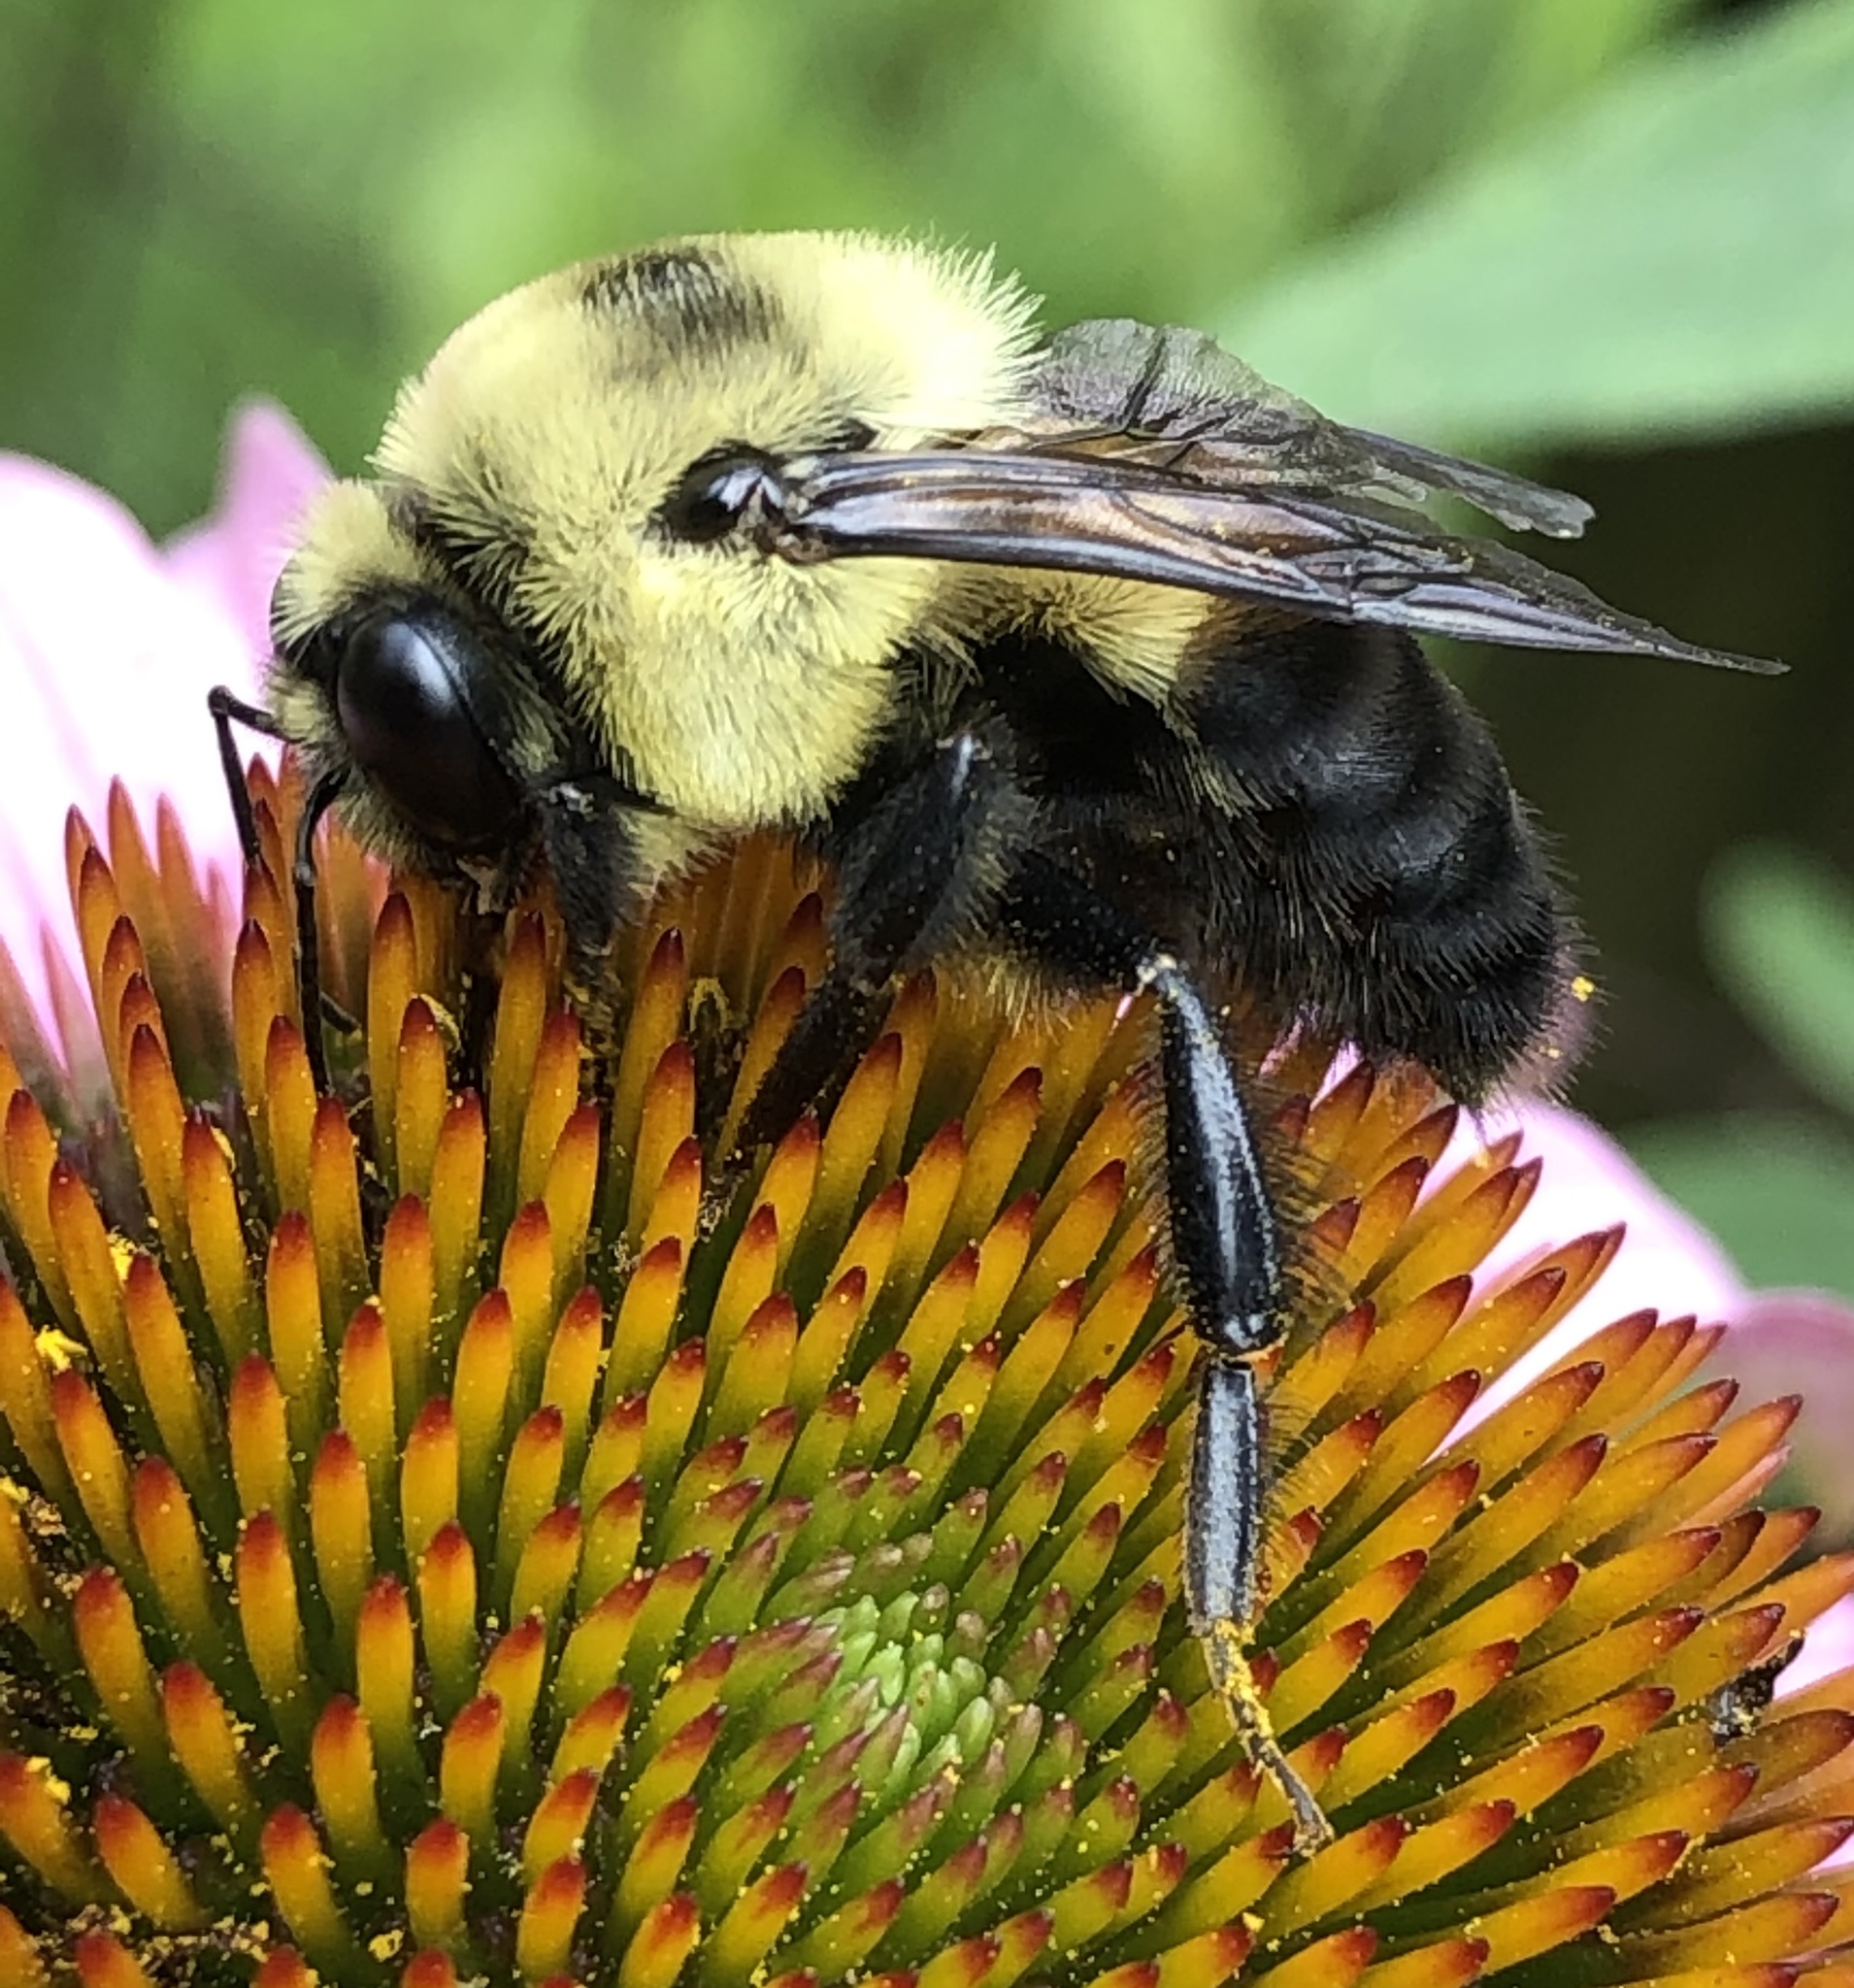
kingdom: Animalia
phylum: Arthropoda
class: Insecta
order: Hymenoptera
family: Apidae
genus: Bombus
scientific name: Bombus griseocollis
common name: Brown-belted bumble bee
